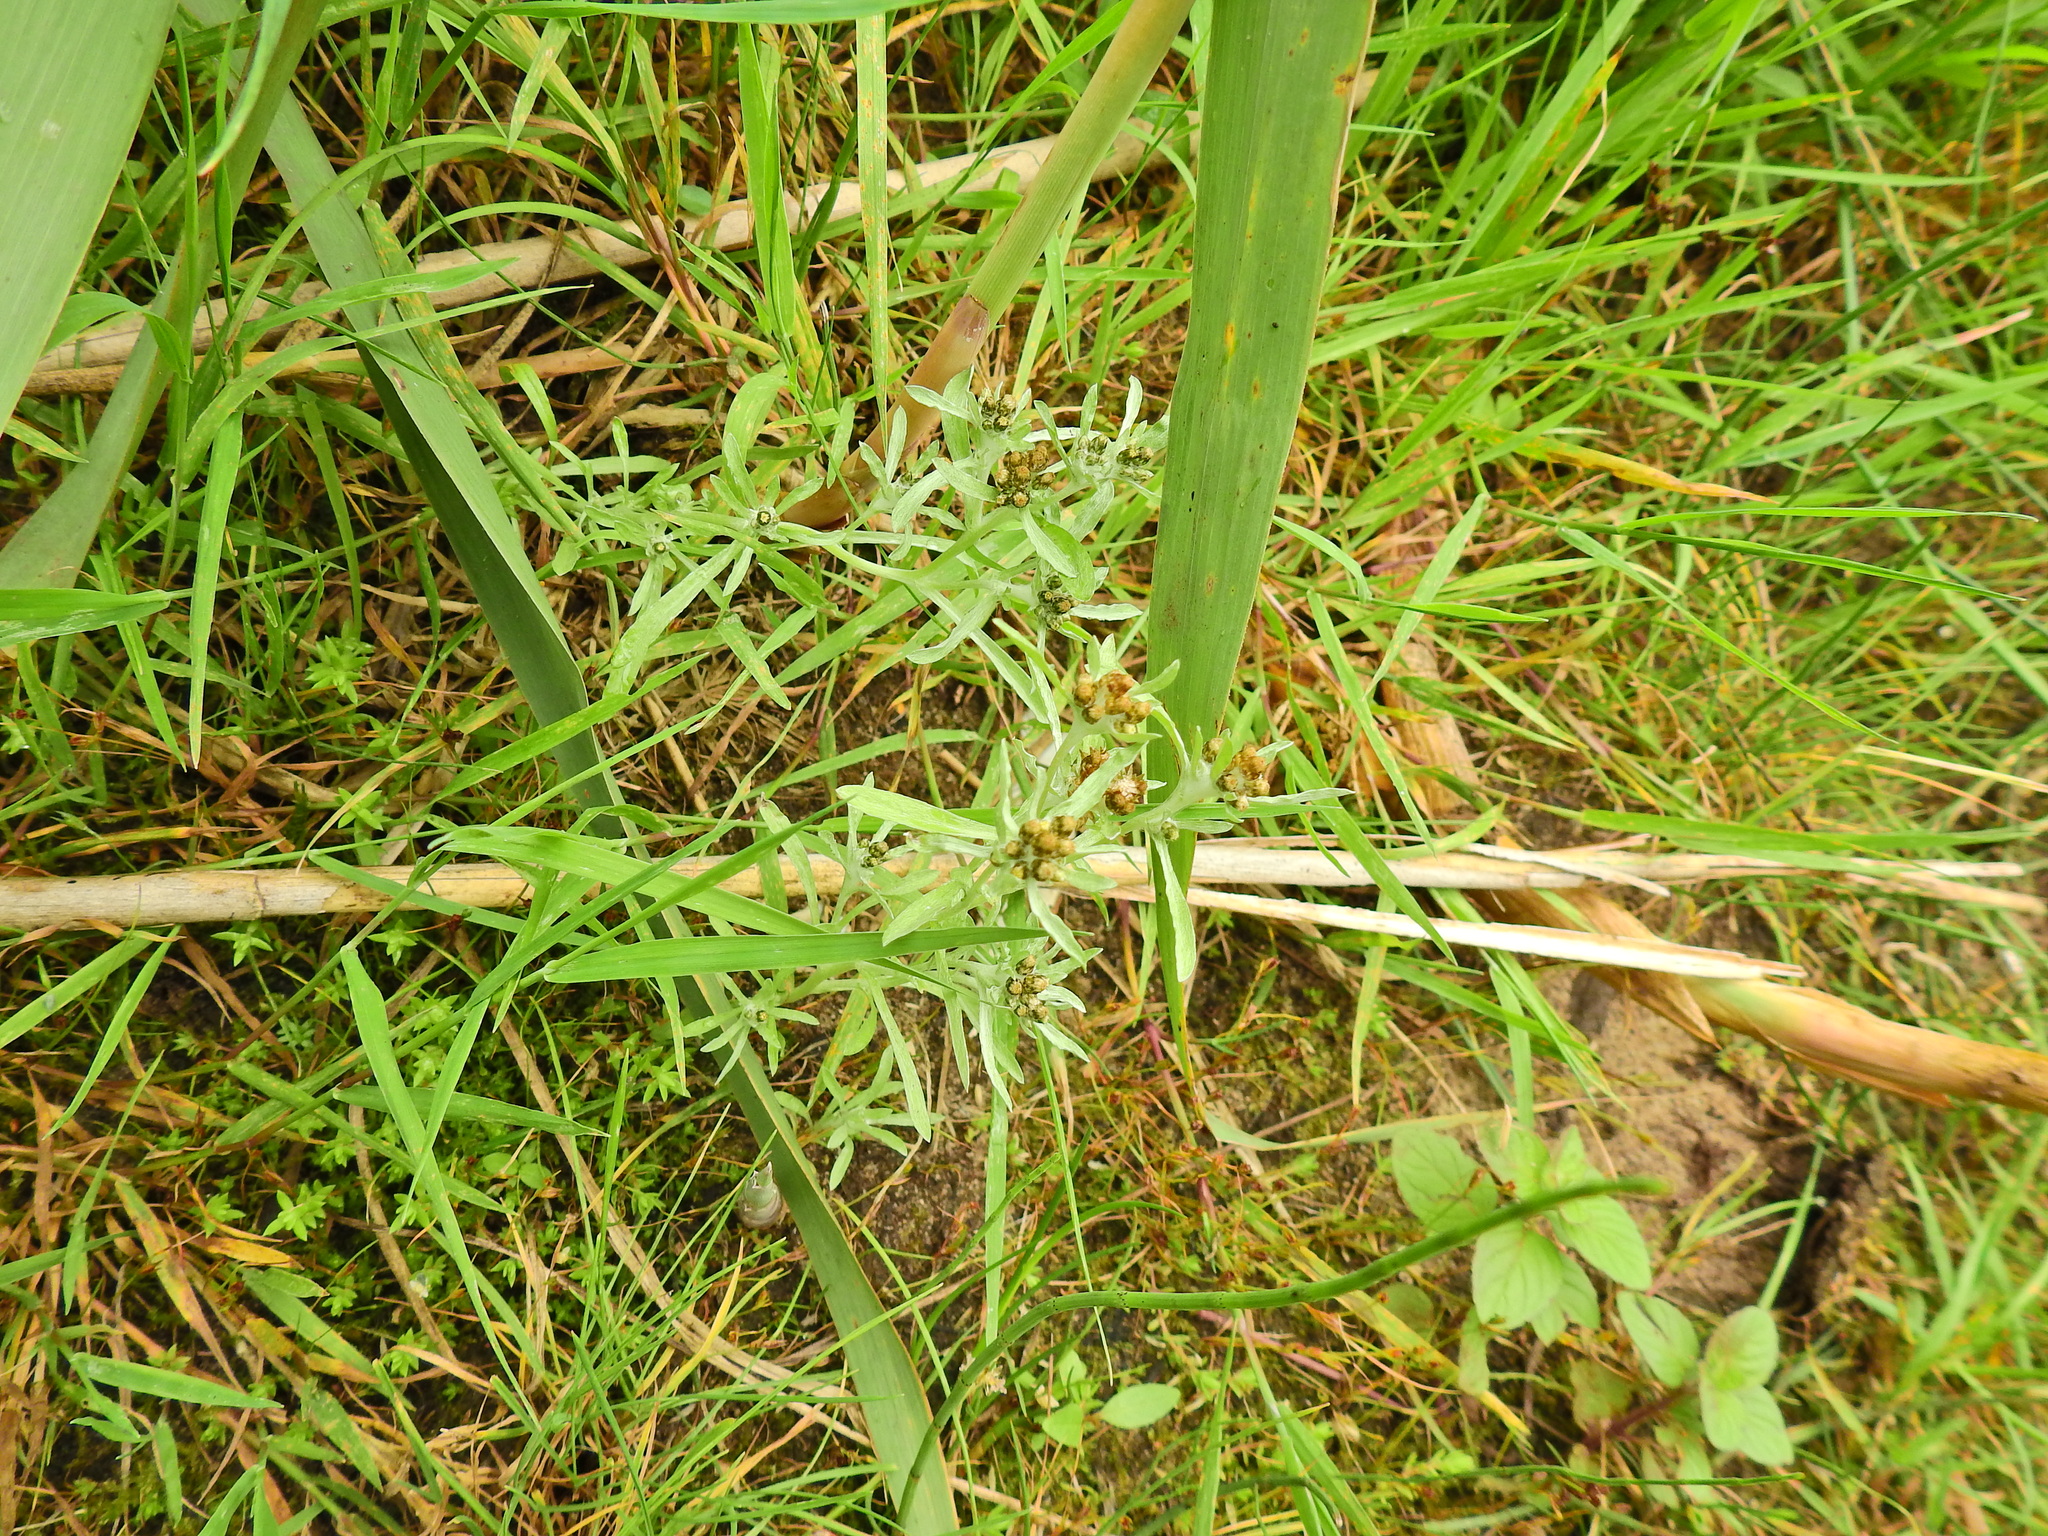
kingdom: Plantae
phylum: Tracheophyta
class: Magnoliopsida
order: Asterales
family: Asteraceae
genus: Gnaphalium
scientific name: Gnaphalium uliginosum
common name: Marsh cudweed
